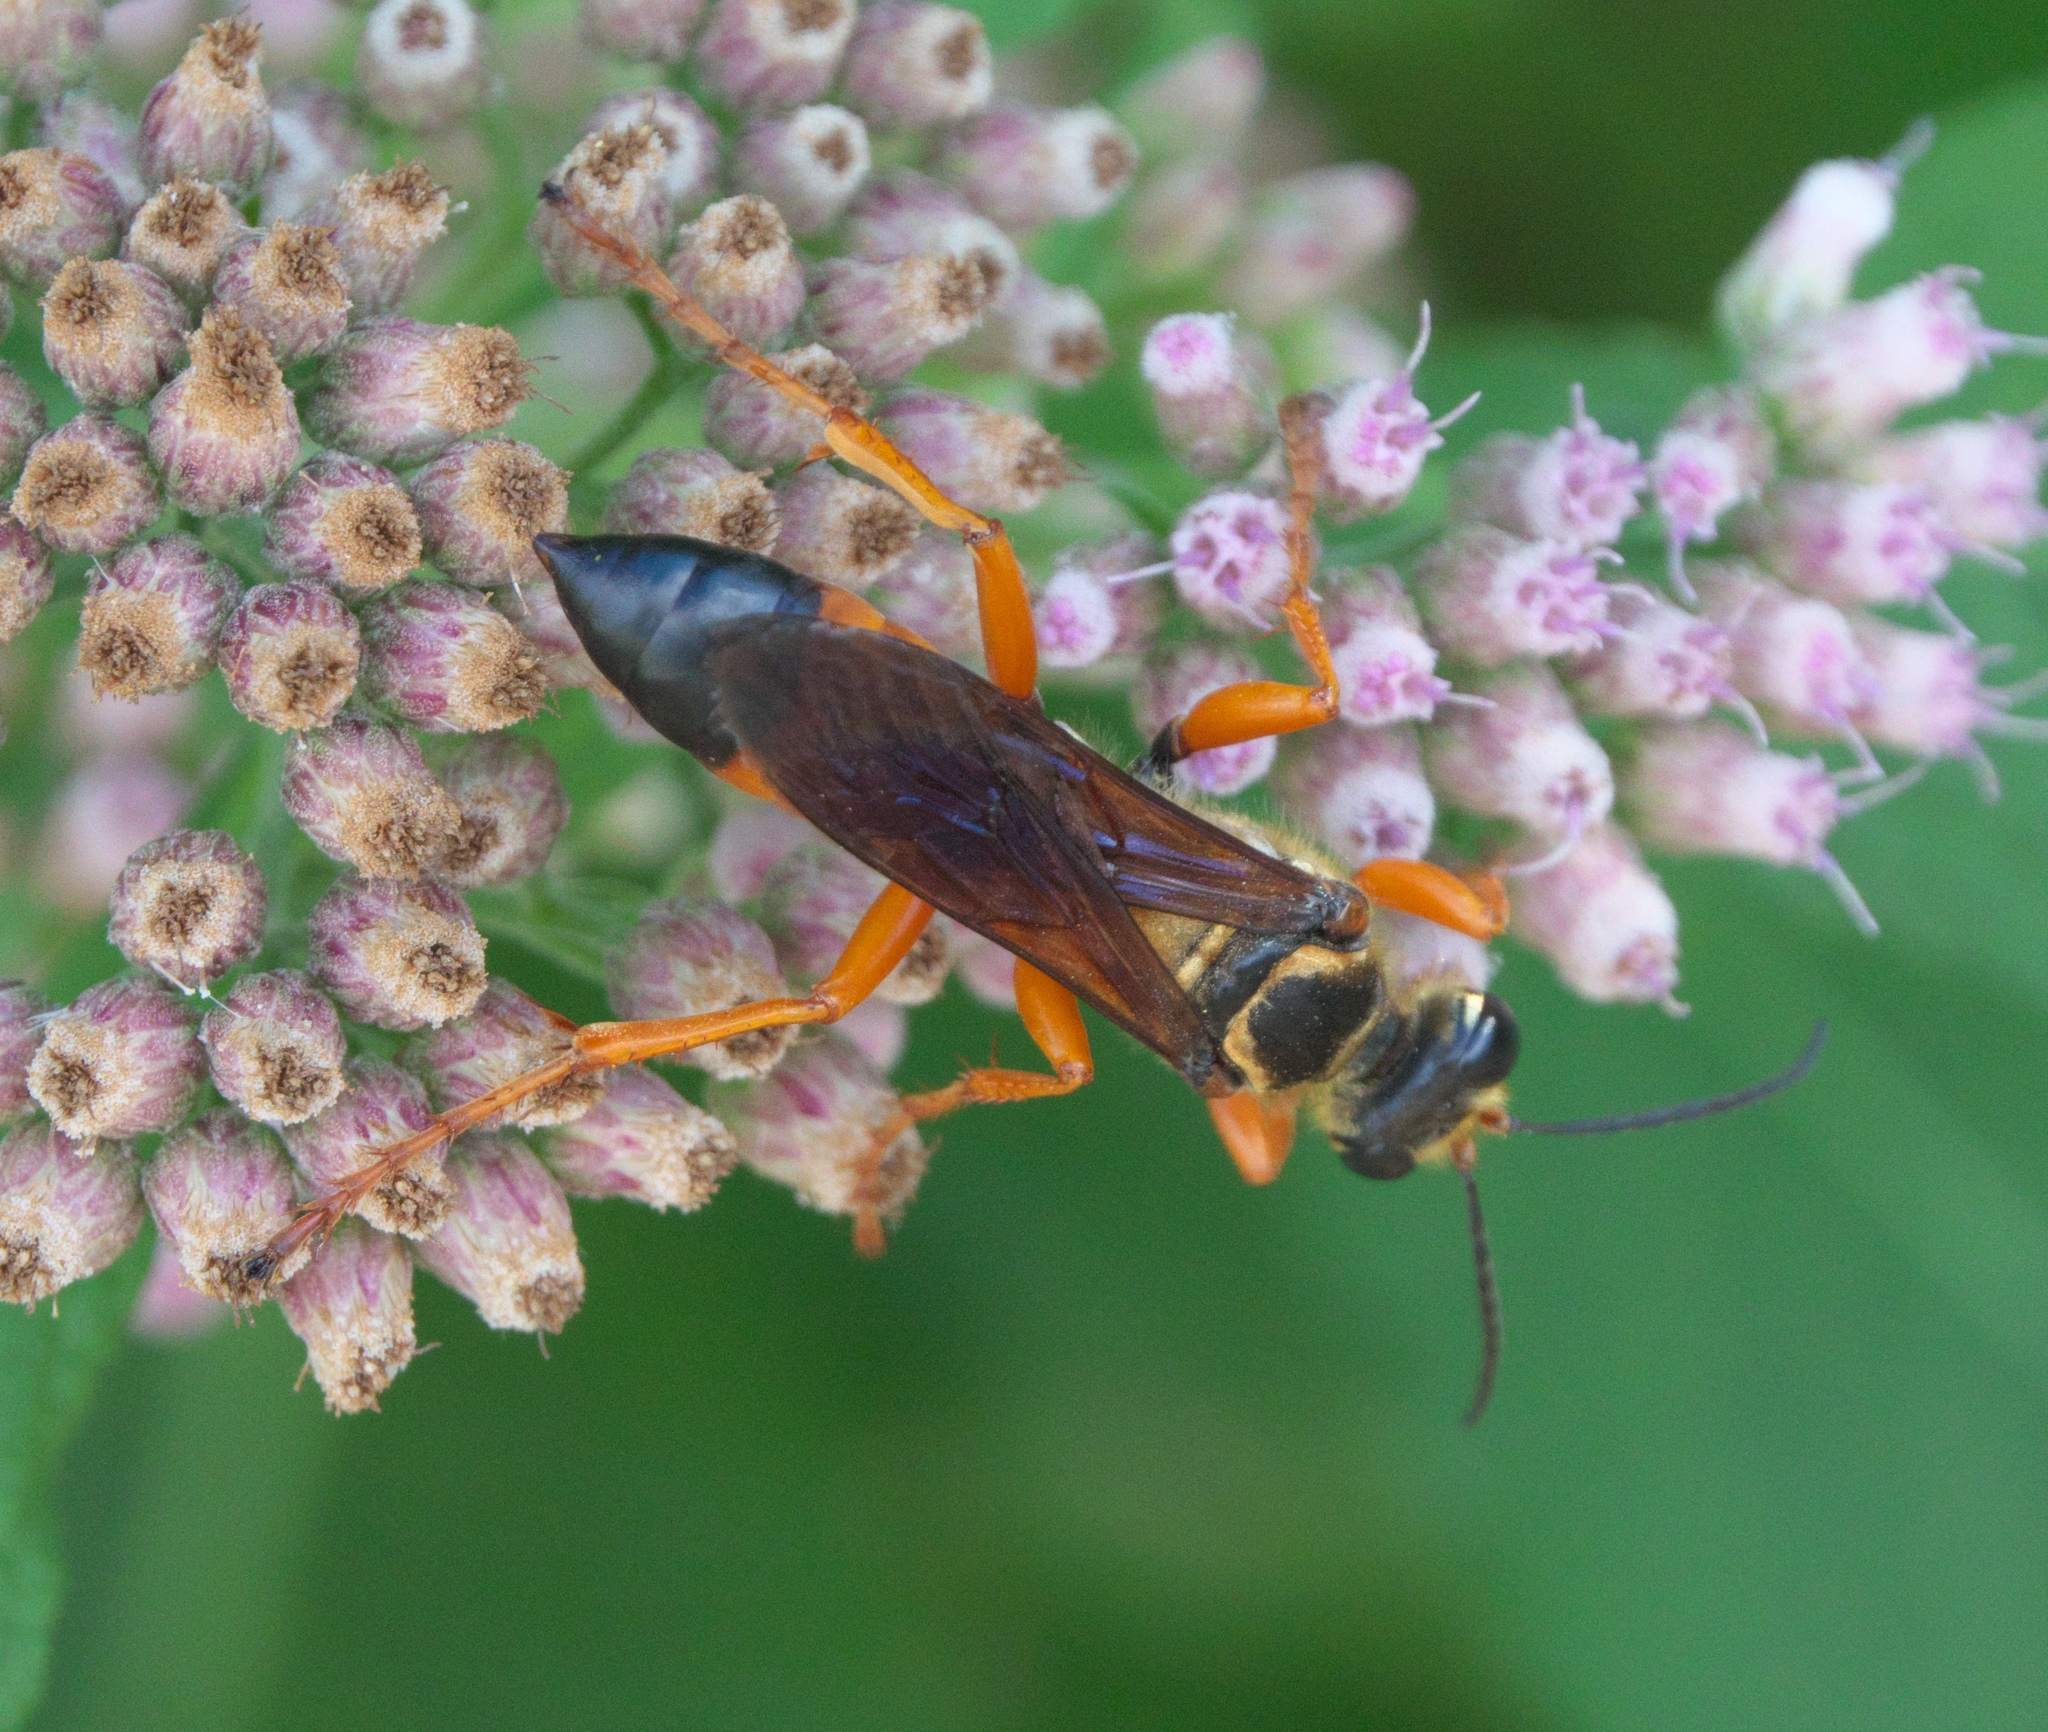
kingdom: Animalia
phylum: Arthropoda
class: Insecta
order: Hymenoptera
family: Sphecidae
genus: Sphex
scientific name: Sphex ichneumoneus
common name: Great golden digger wasp
